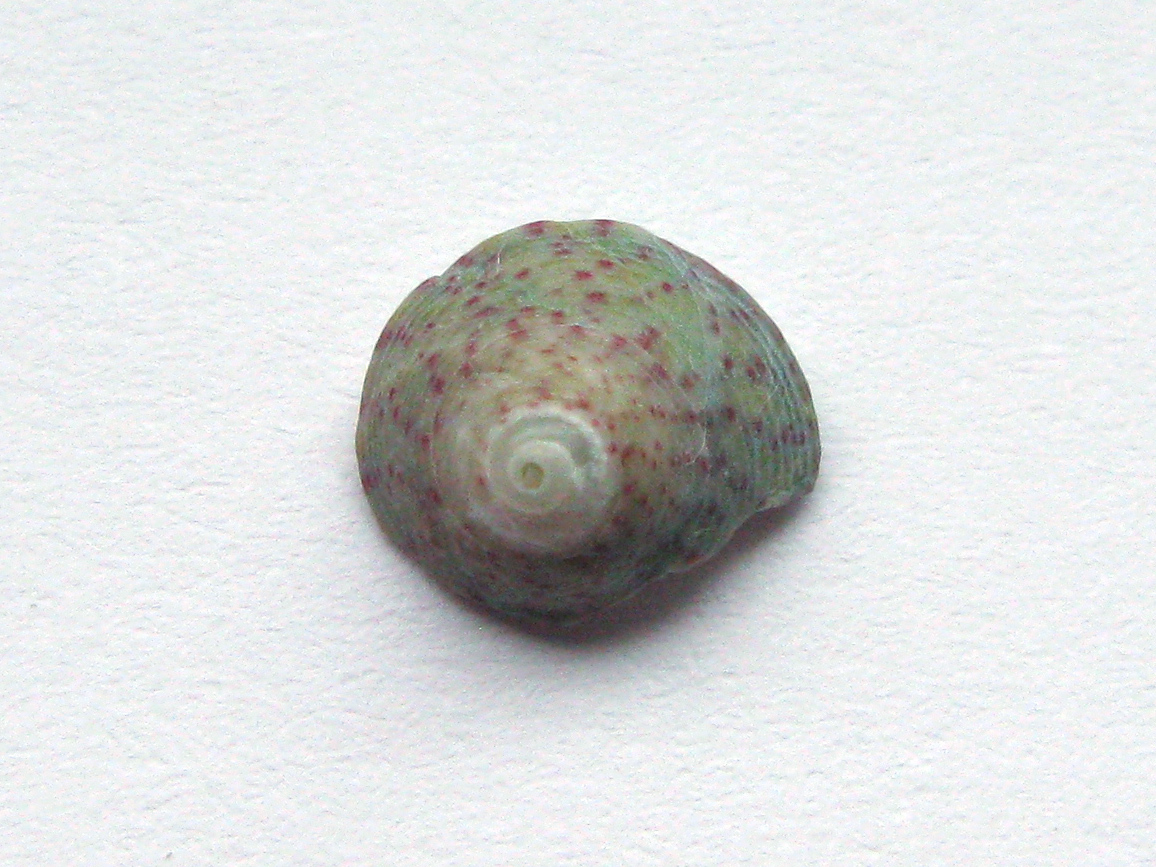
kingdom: Animalia
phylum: Mollusca
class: Gastropoda
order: Trochida
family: Trochidae
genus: Steromphala
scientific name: Steromphala divaricata
